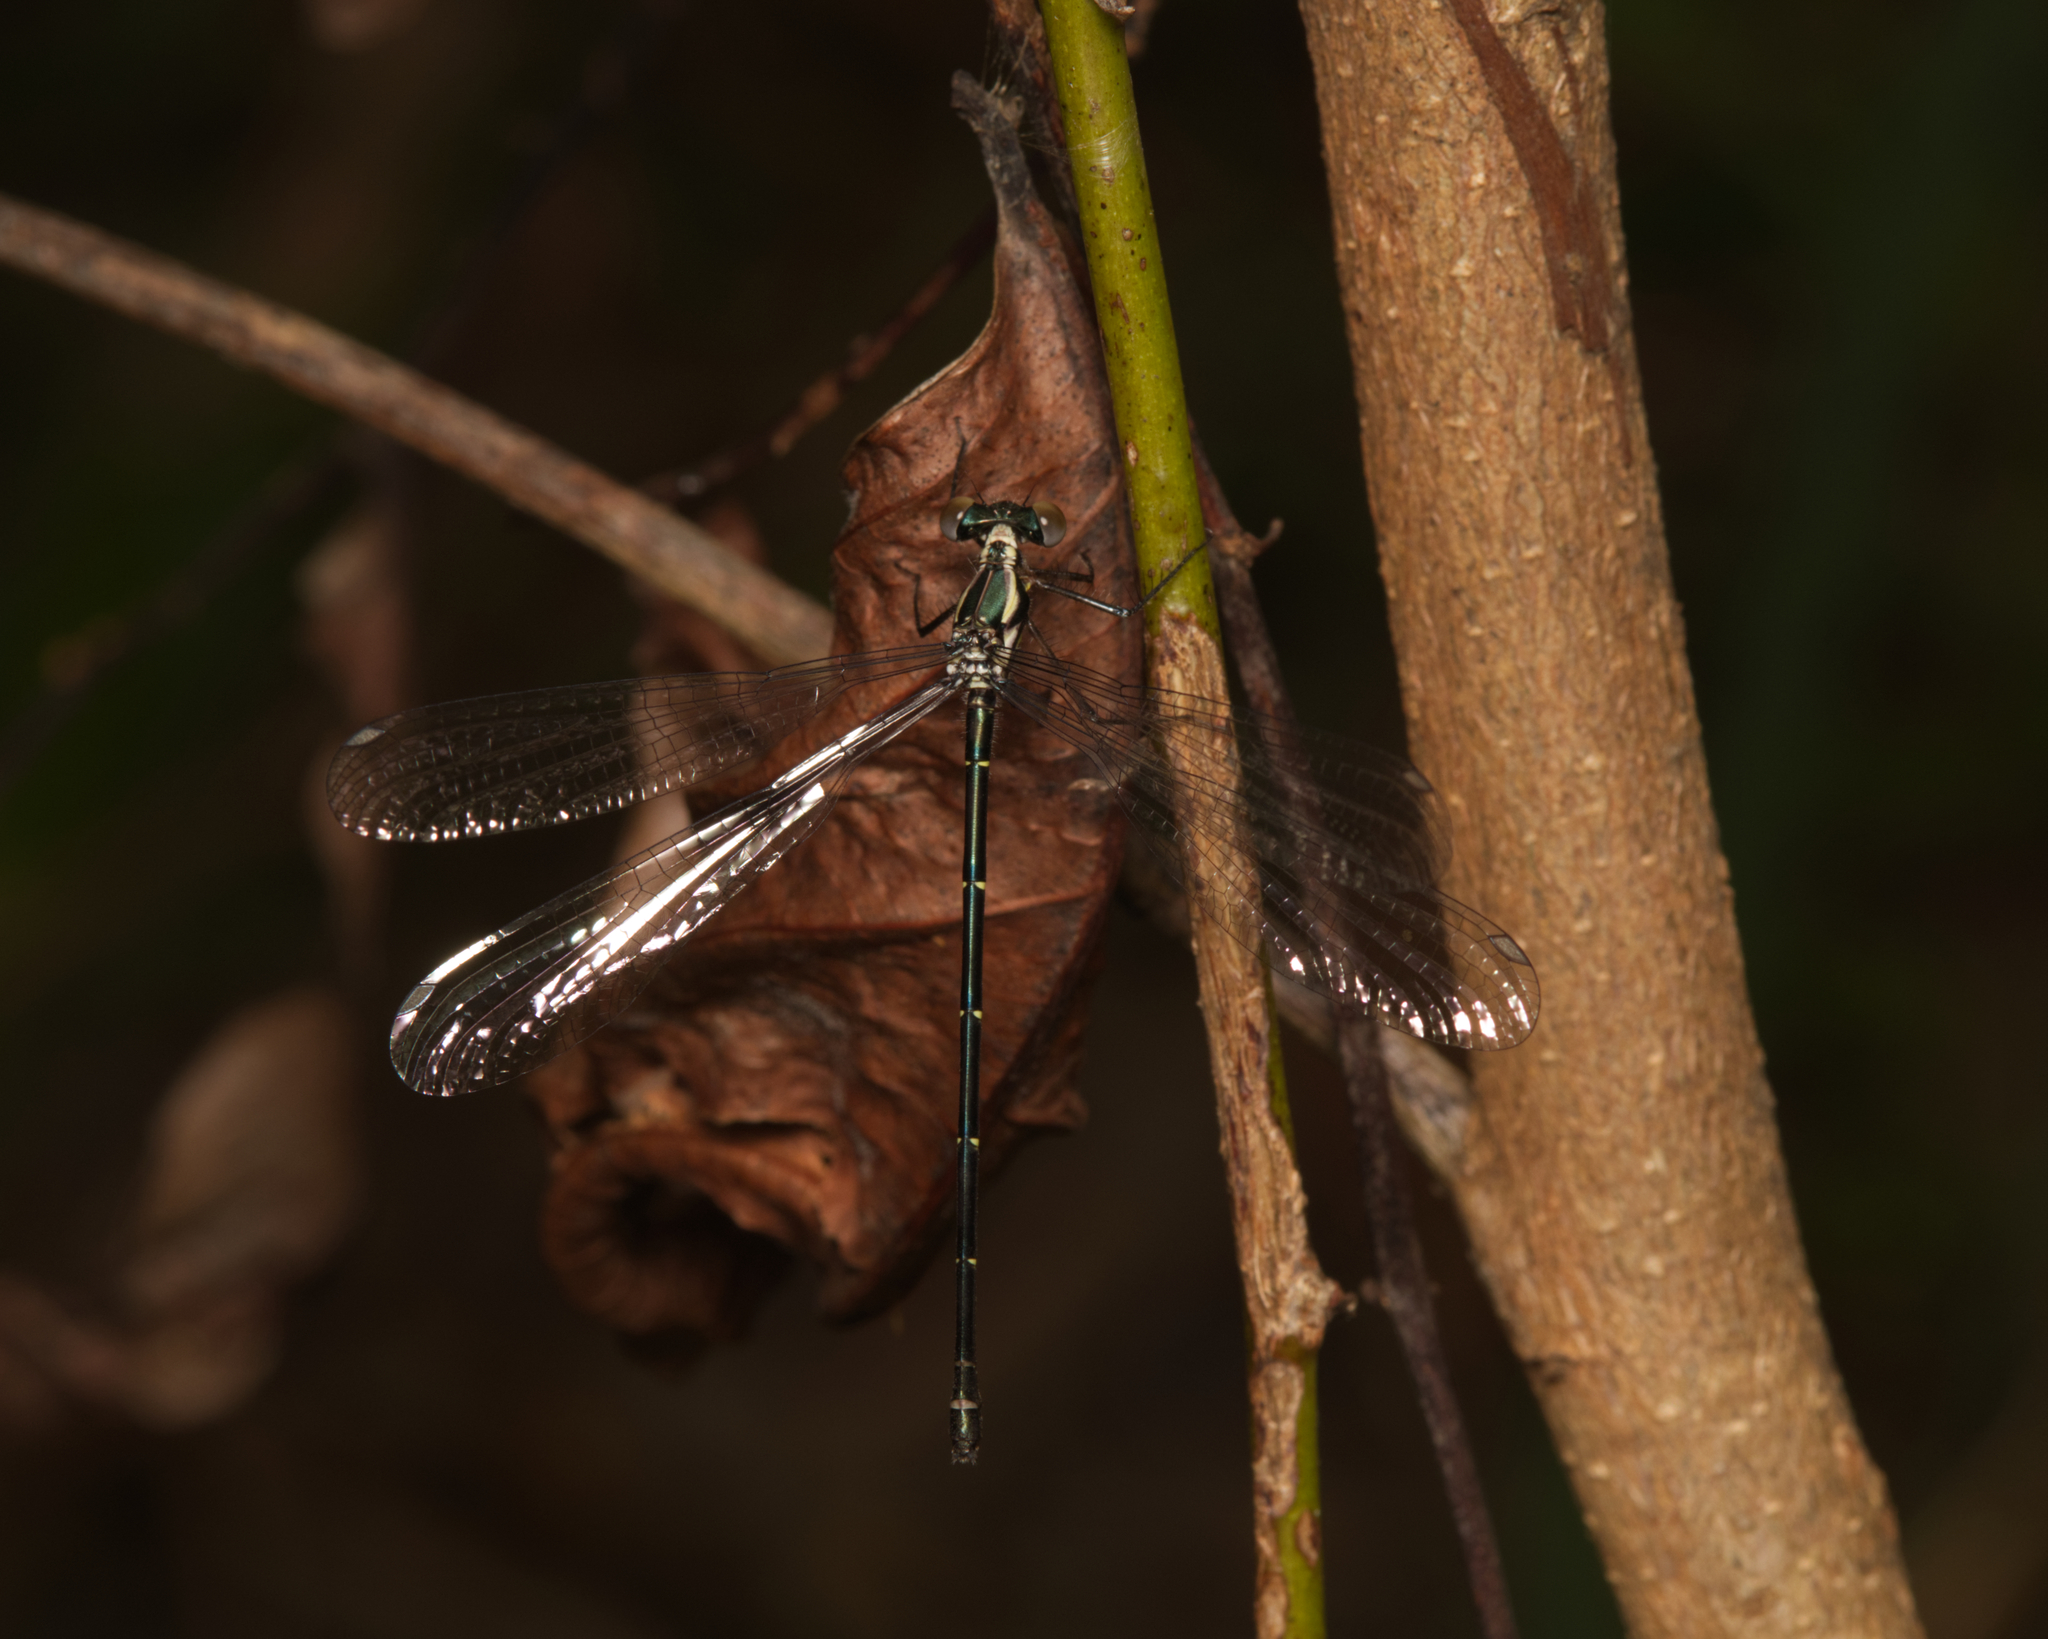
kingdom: Animalia
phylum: Arthropoda
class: Insecta
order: Odonata
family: Argiolestidae
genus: Austroargiolestes
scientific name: Austroargiolestes icteromelas
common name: Common flatwing
